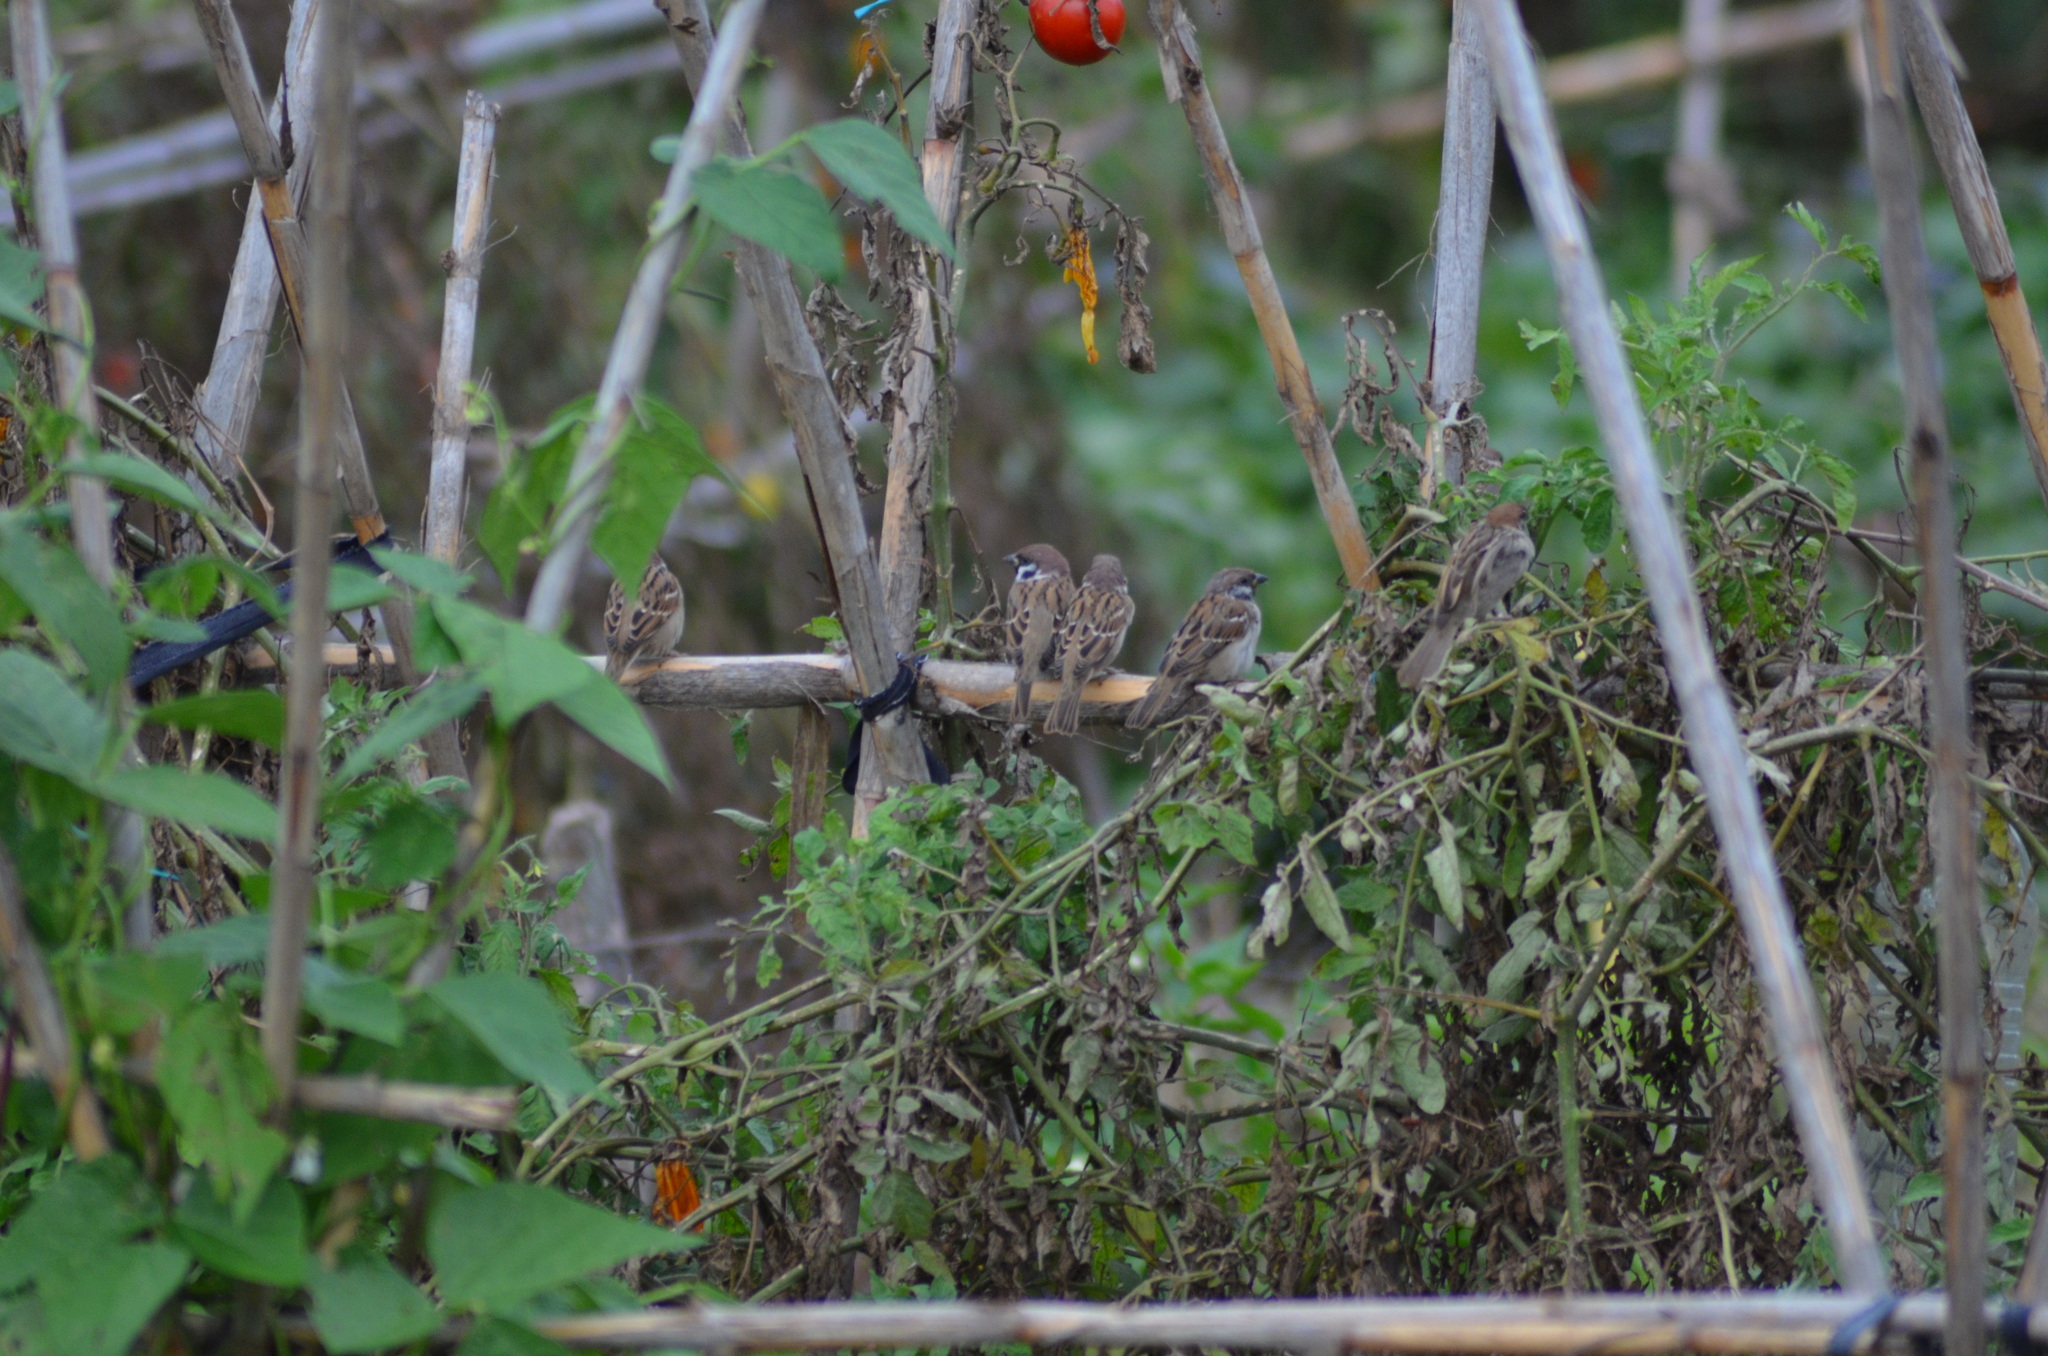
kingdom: Animalia
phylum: Chordata
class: Aves
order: Passeriformes
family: Passeridae
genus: Passer
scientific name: Passer montanus
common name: Eurasian tree sparrow
